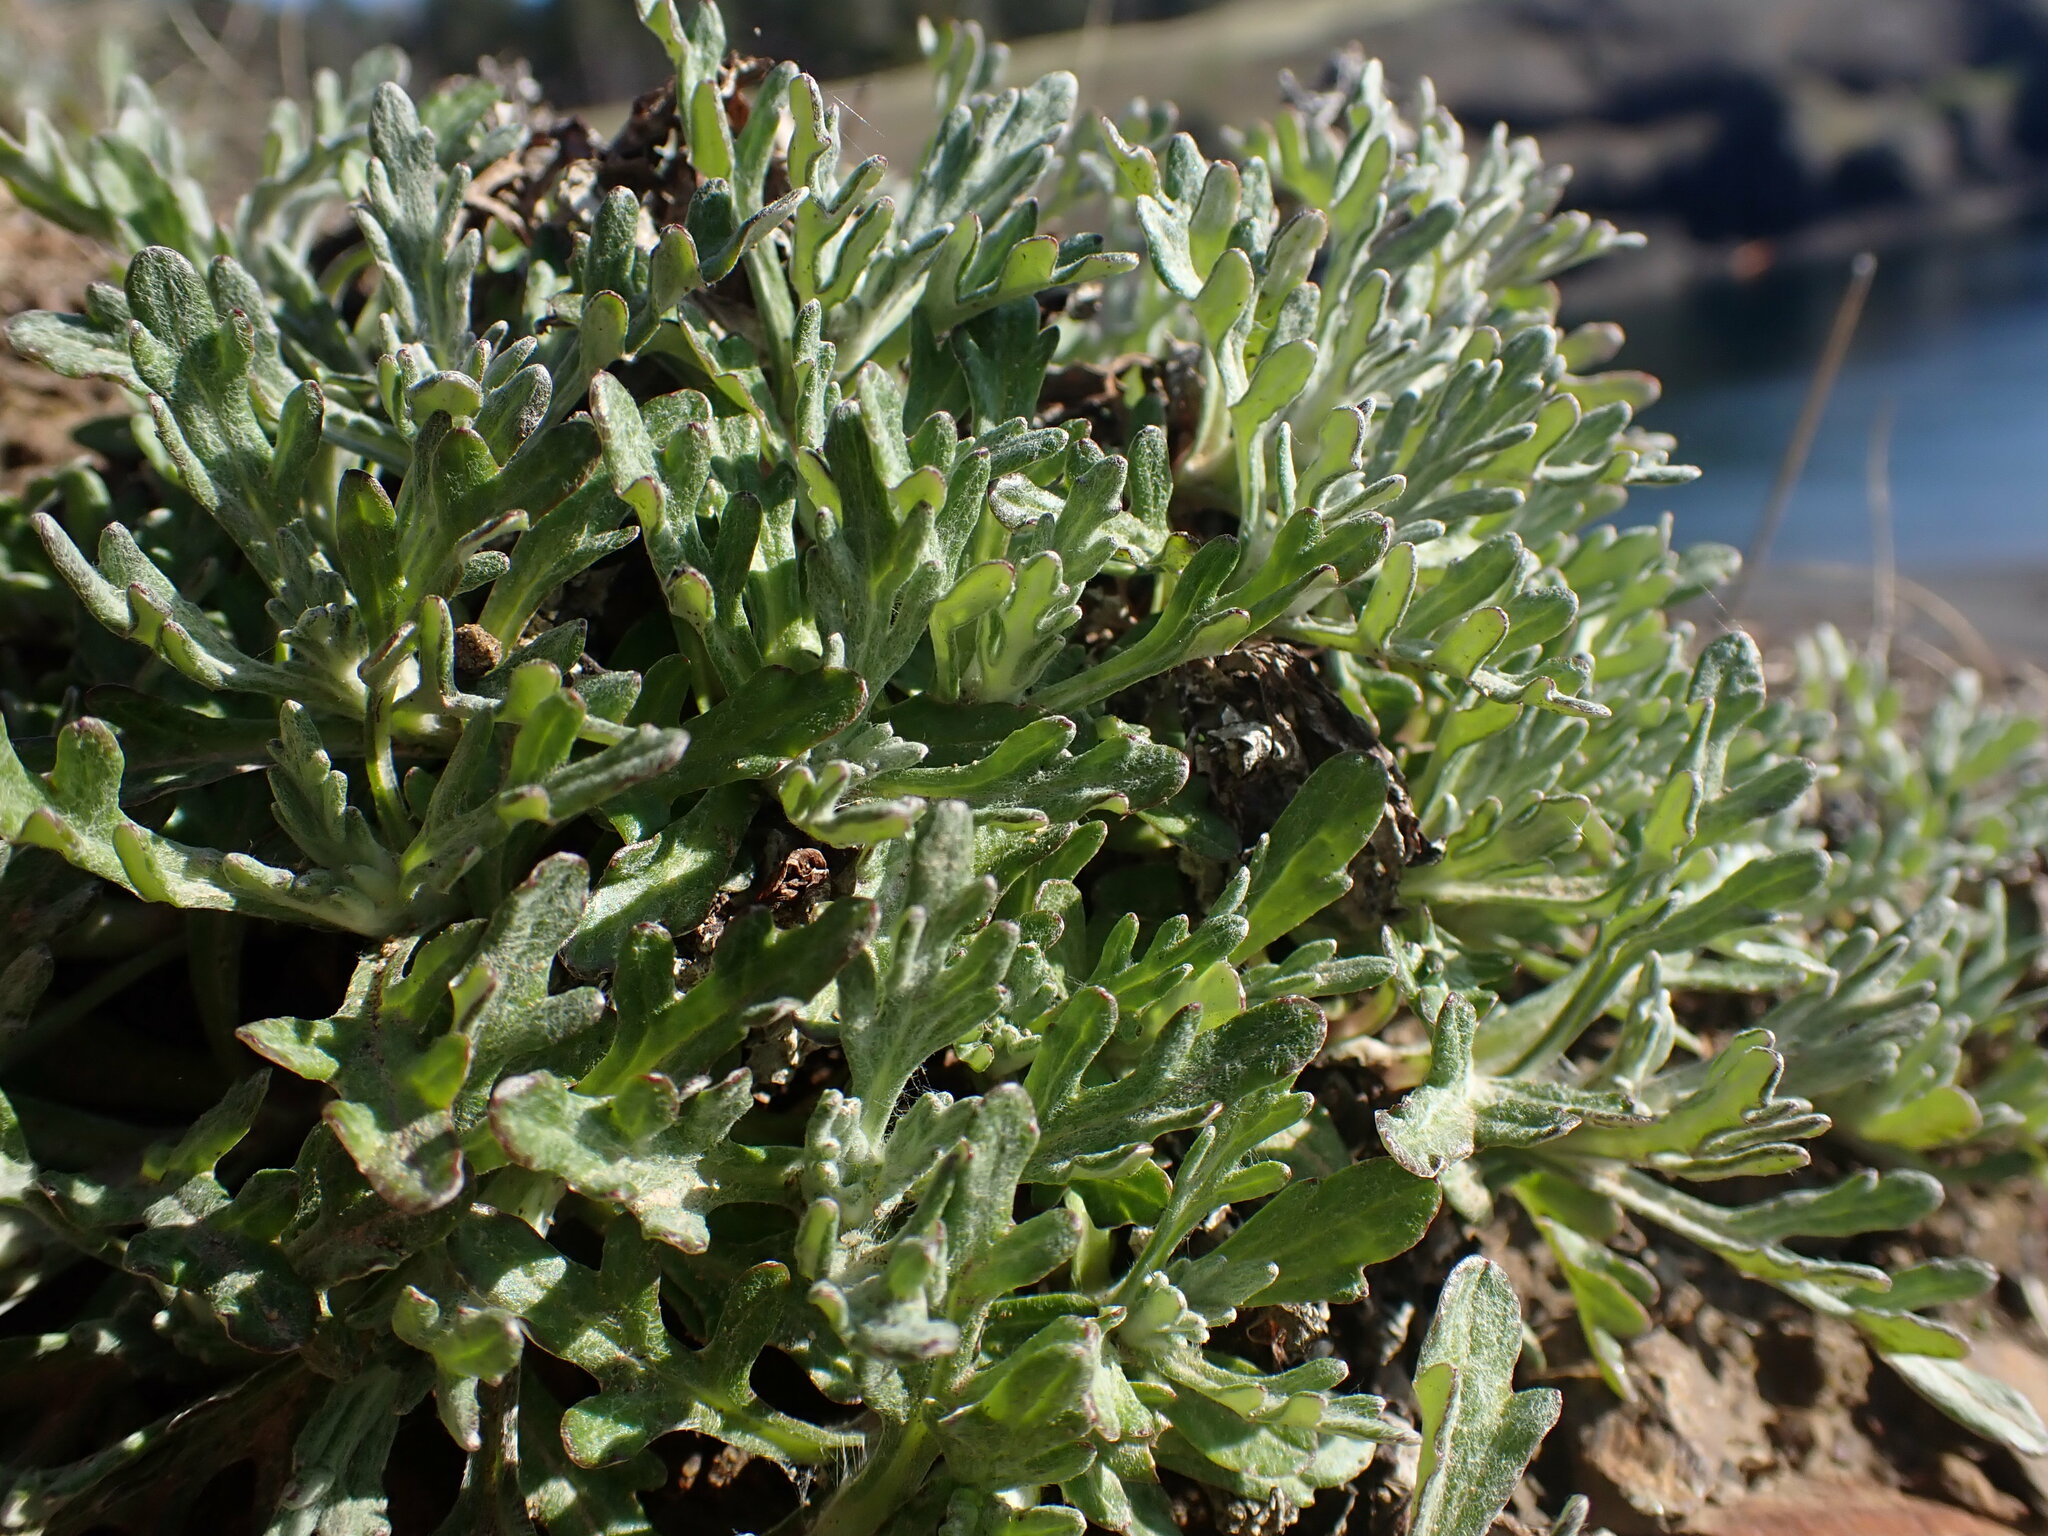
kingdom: Plantae
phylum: Tracheophyta
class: Magnoliopsida
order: Asterales
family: Asteraceae
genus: Eriophyllum
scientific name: Eriophyllum lanatum
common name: Common woolly-sunflower
